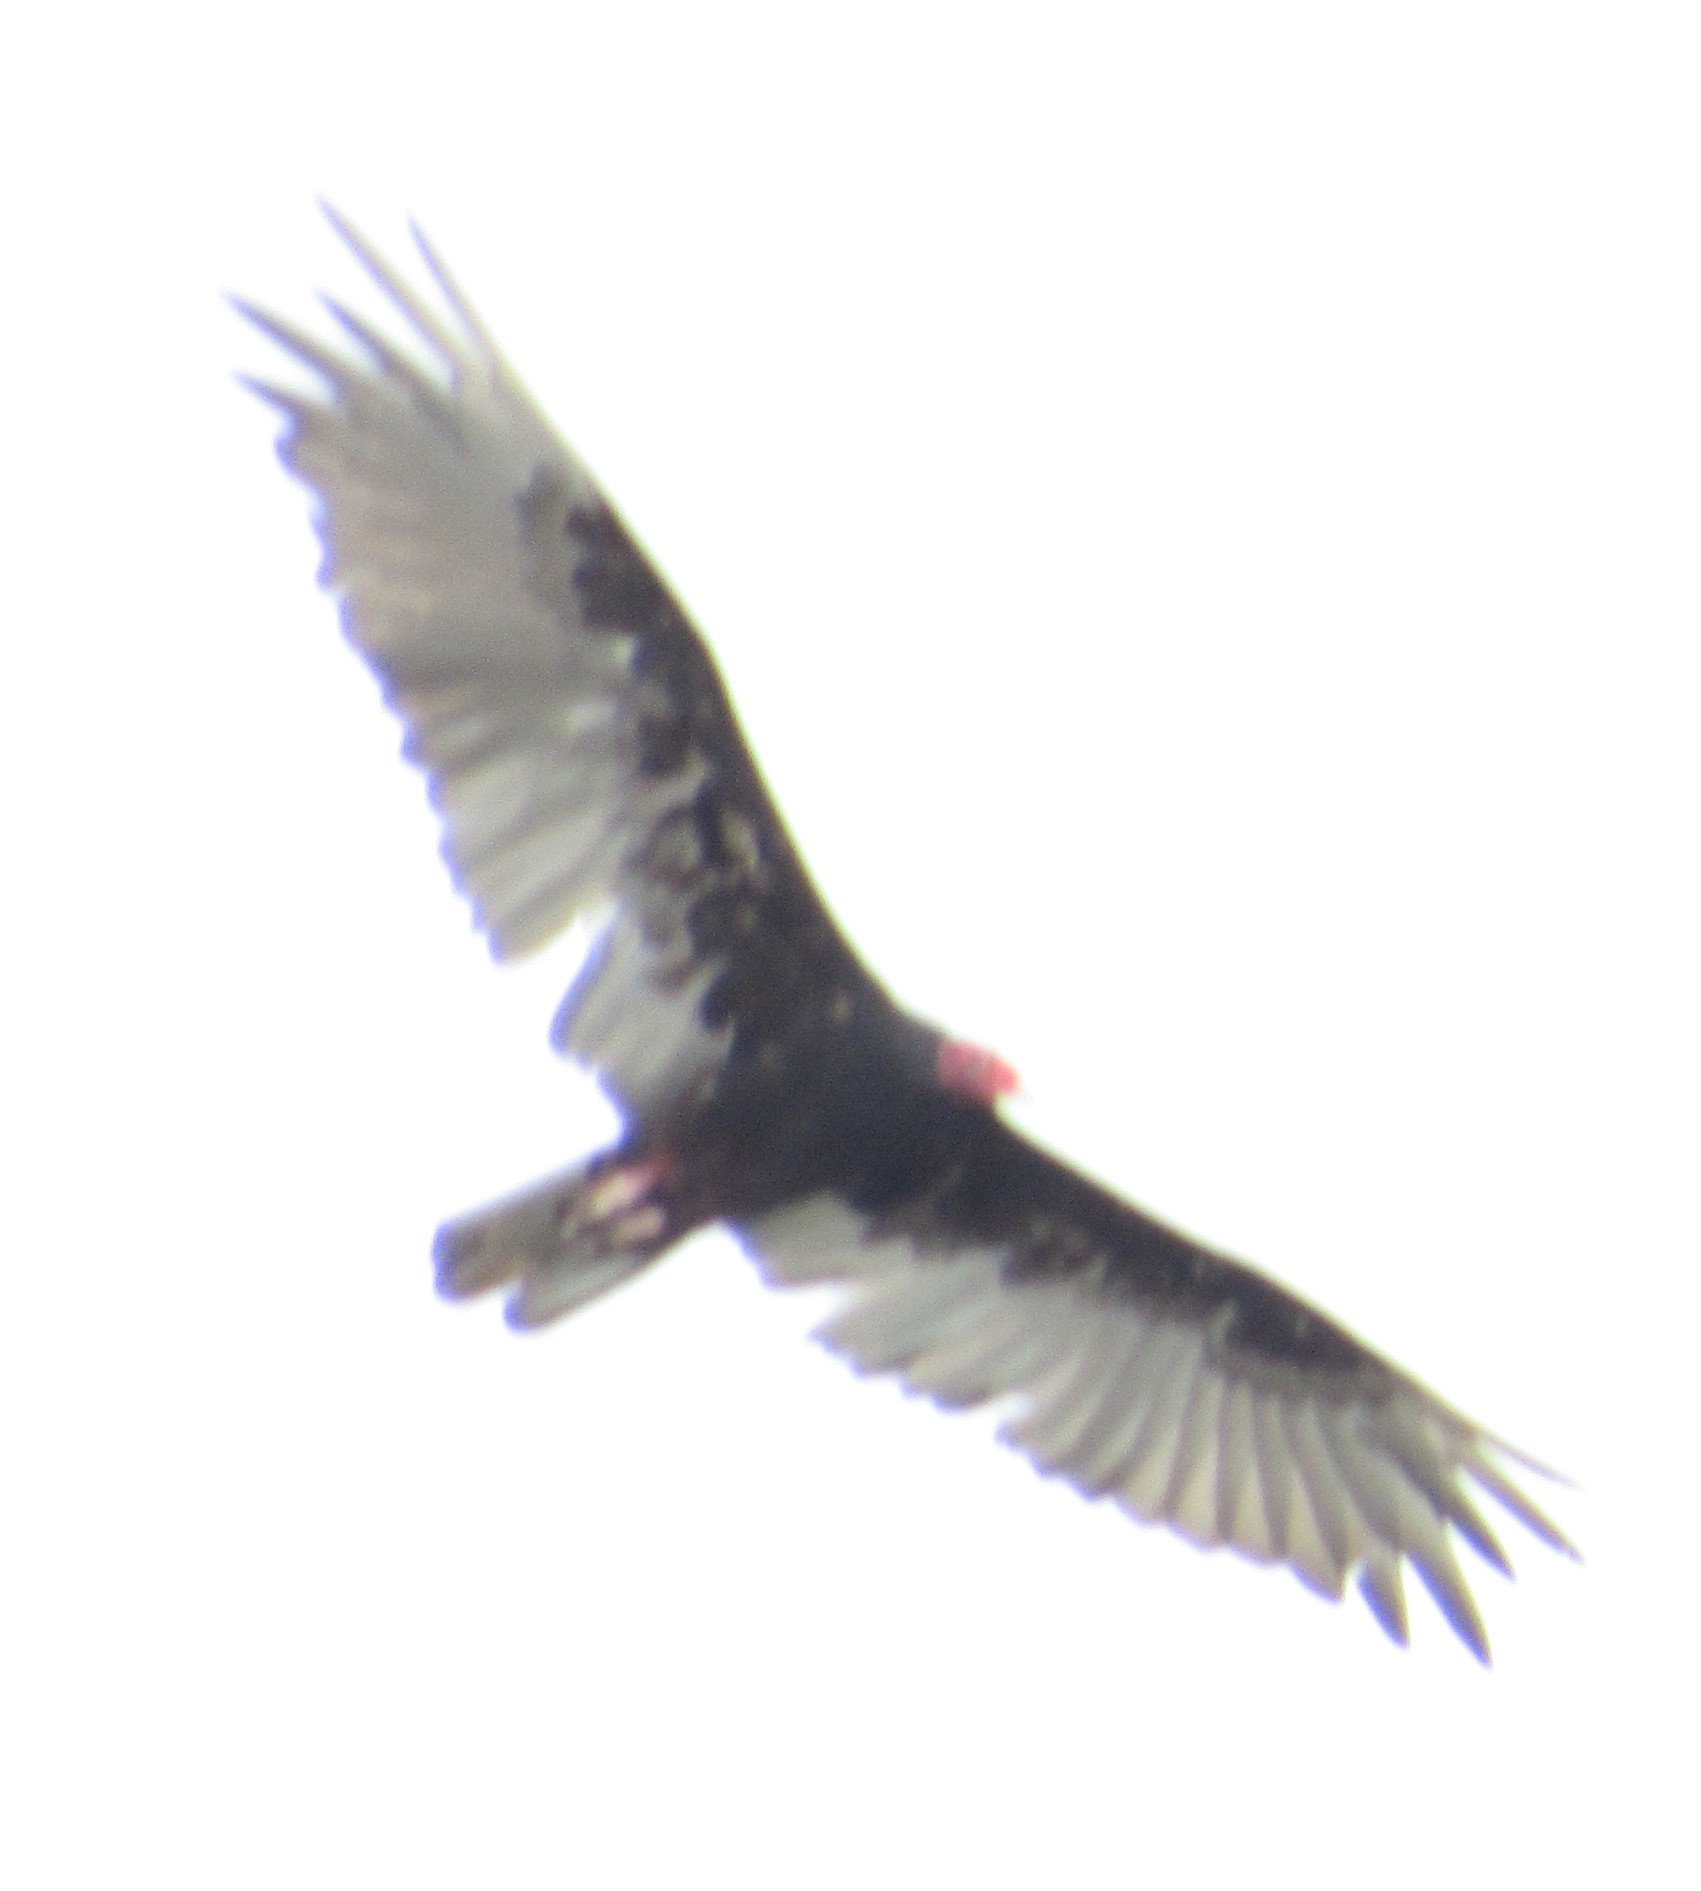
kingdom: Animalia
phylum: Chordata
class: Aves
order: Accipitriformes
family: Cathartidae
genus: Cathartes
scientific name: Cathartes aura
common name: Turkey vulture
